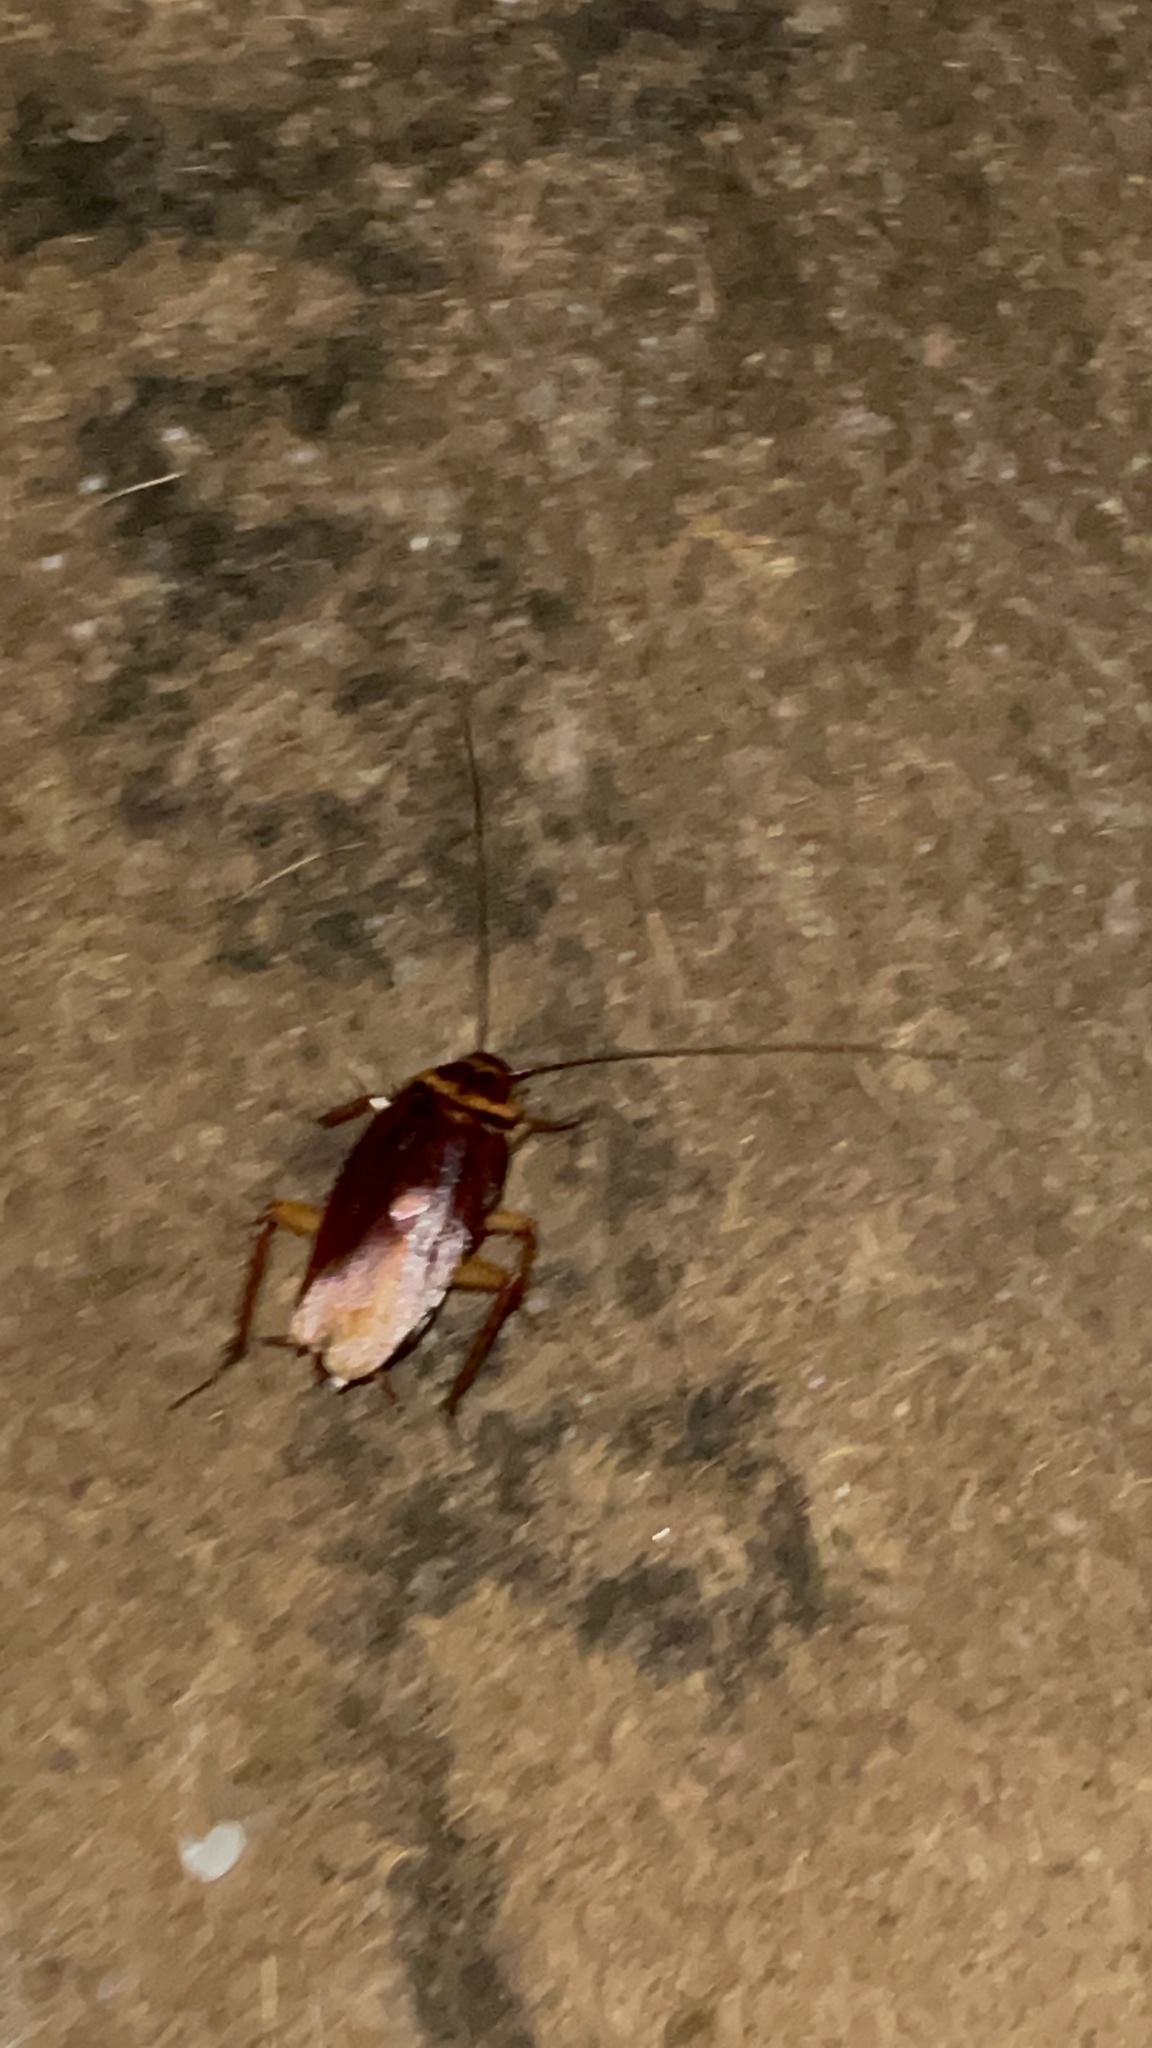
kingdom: Animalia
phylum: Arthropoda
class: Insecta
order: Blattodea
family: Blattidae
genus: Periplaneta
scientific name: Periplaneta americana
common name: American cockroach
